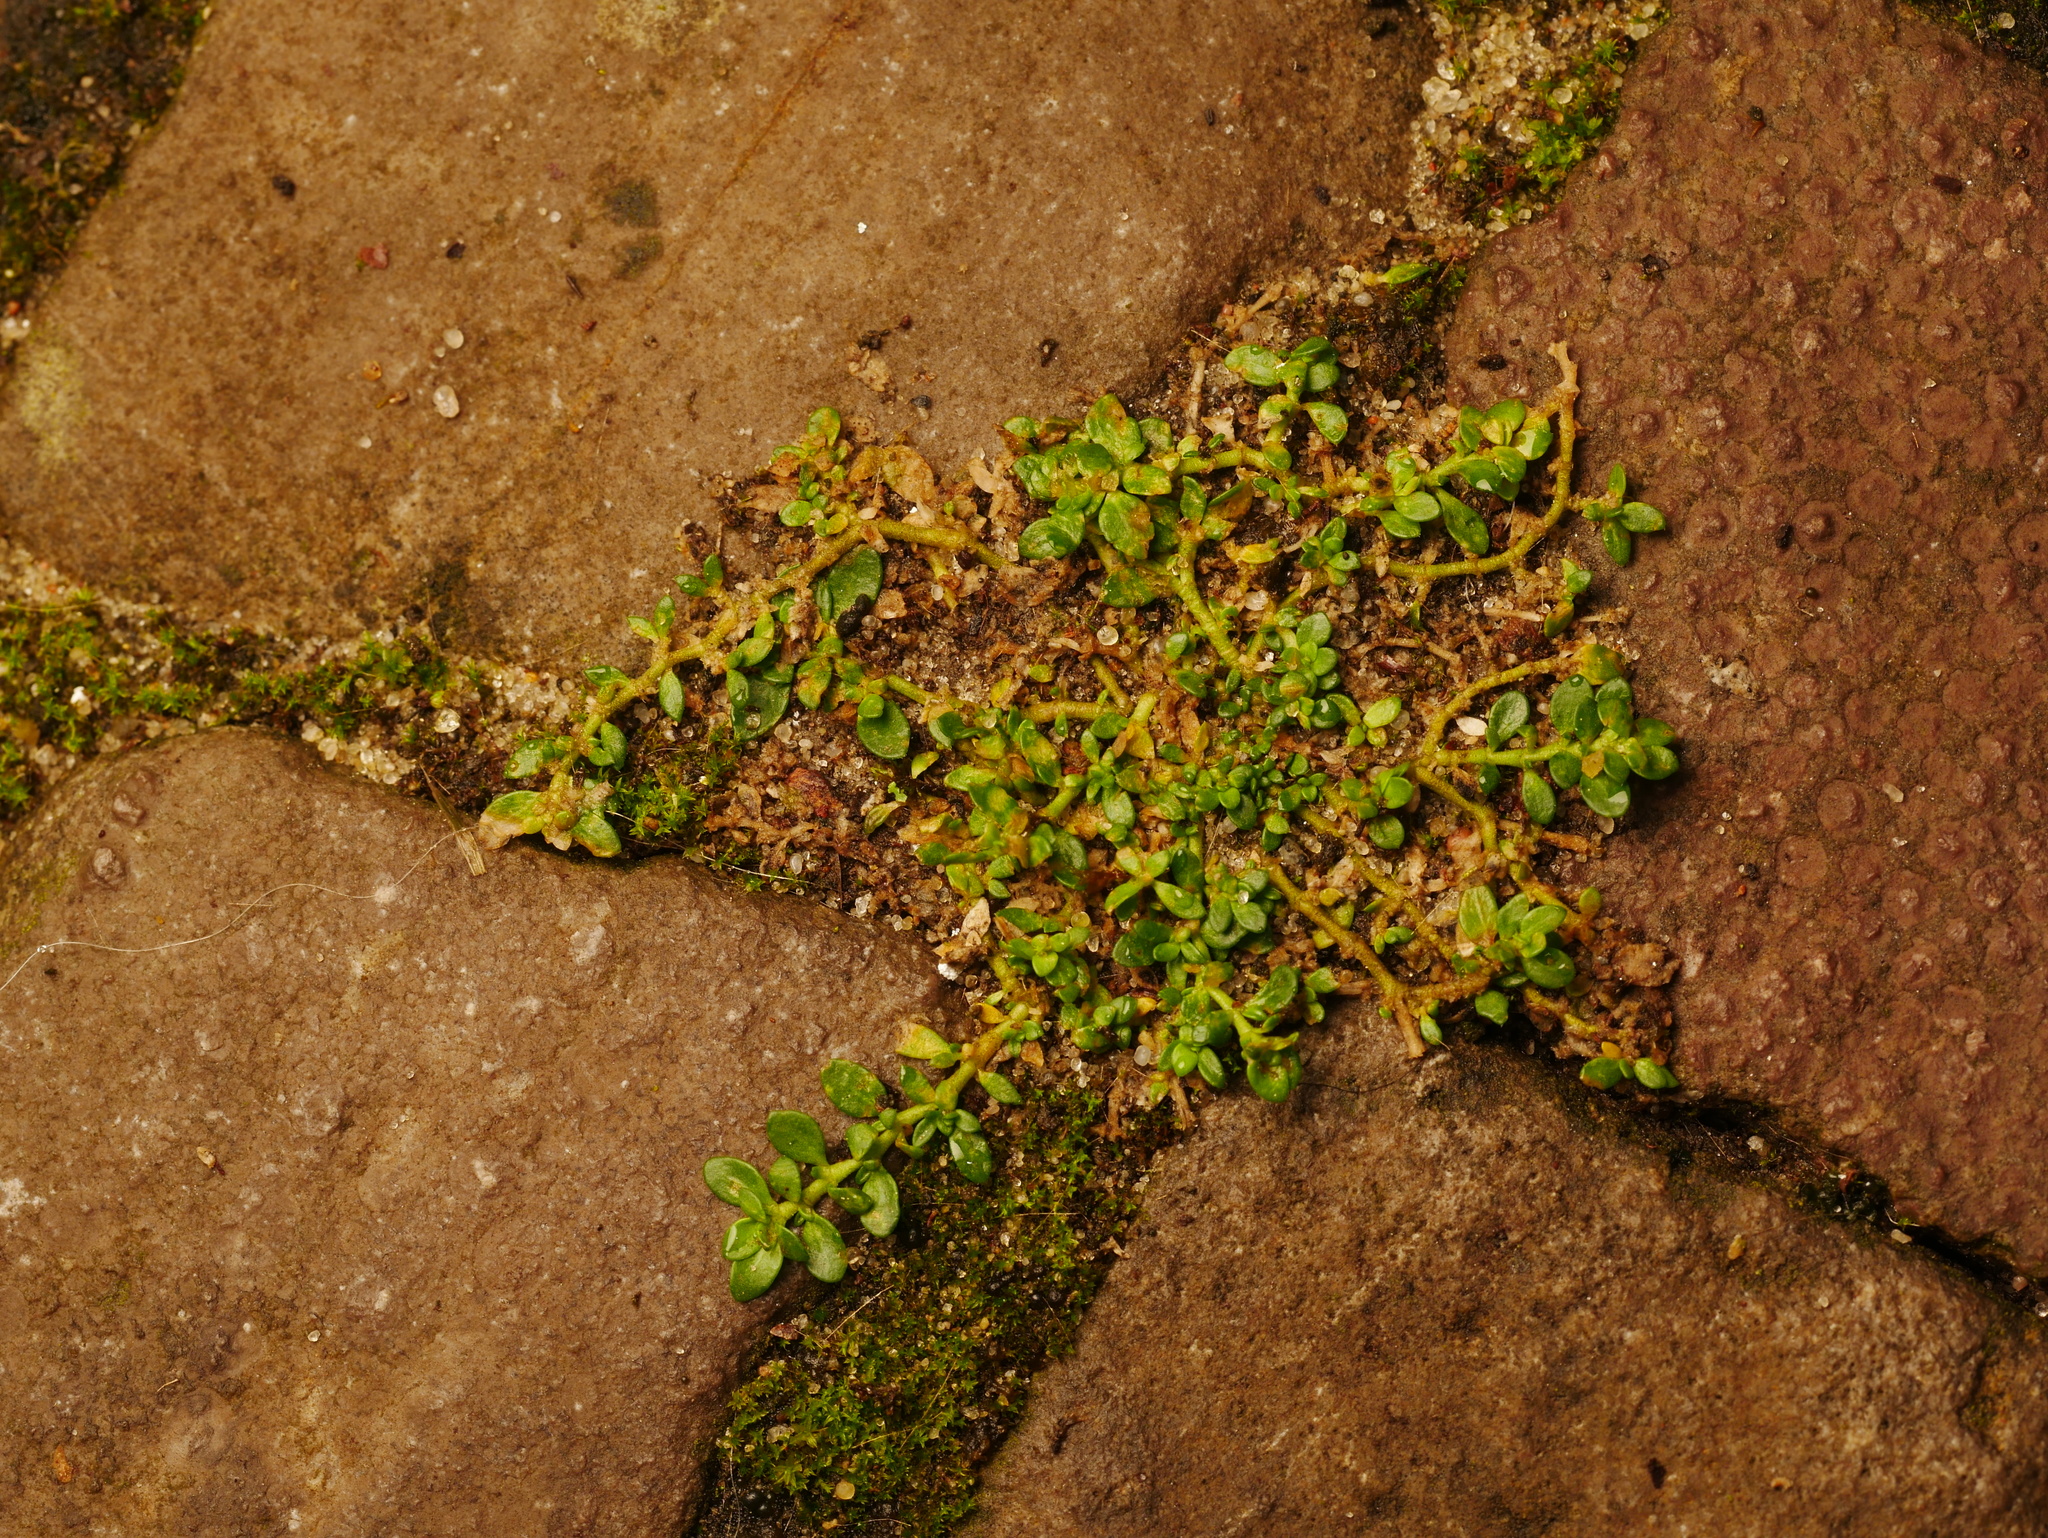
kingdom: Plantae
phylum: Tracheophyta
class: Magnoliopsida
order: Caryophyllales
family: Caryophyllaceae
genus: Herniaria
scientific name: Herniaria glabra
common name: Smooth rupturewort
